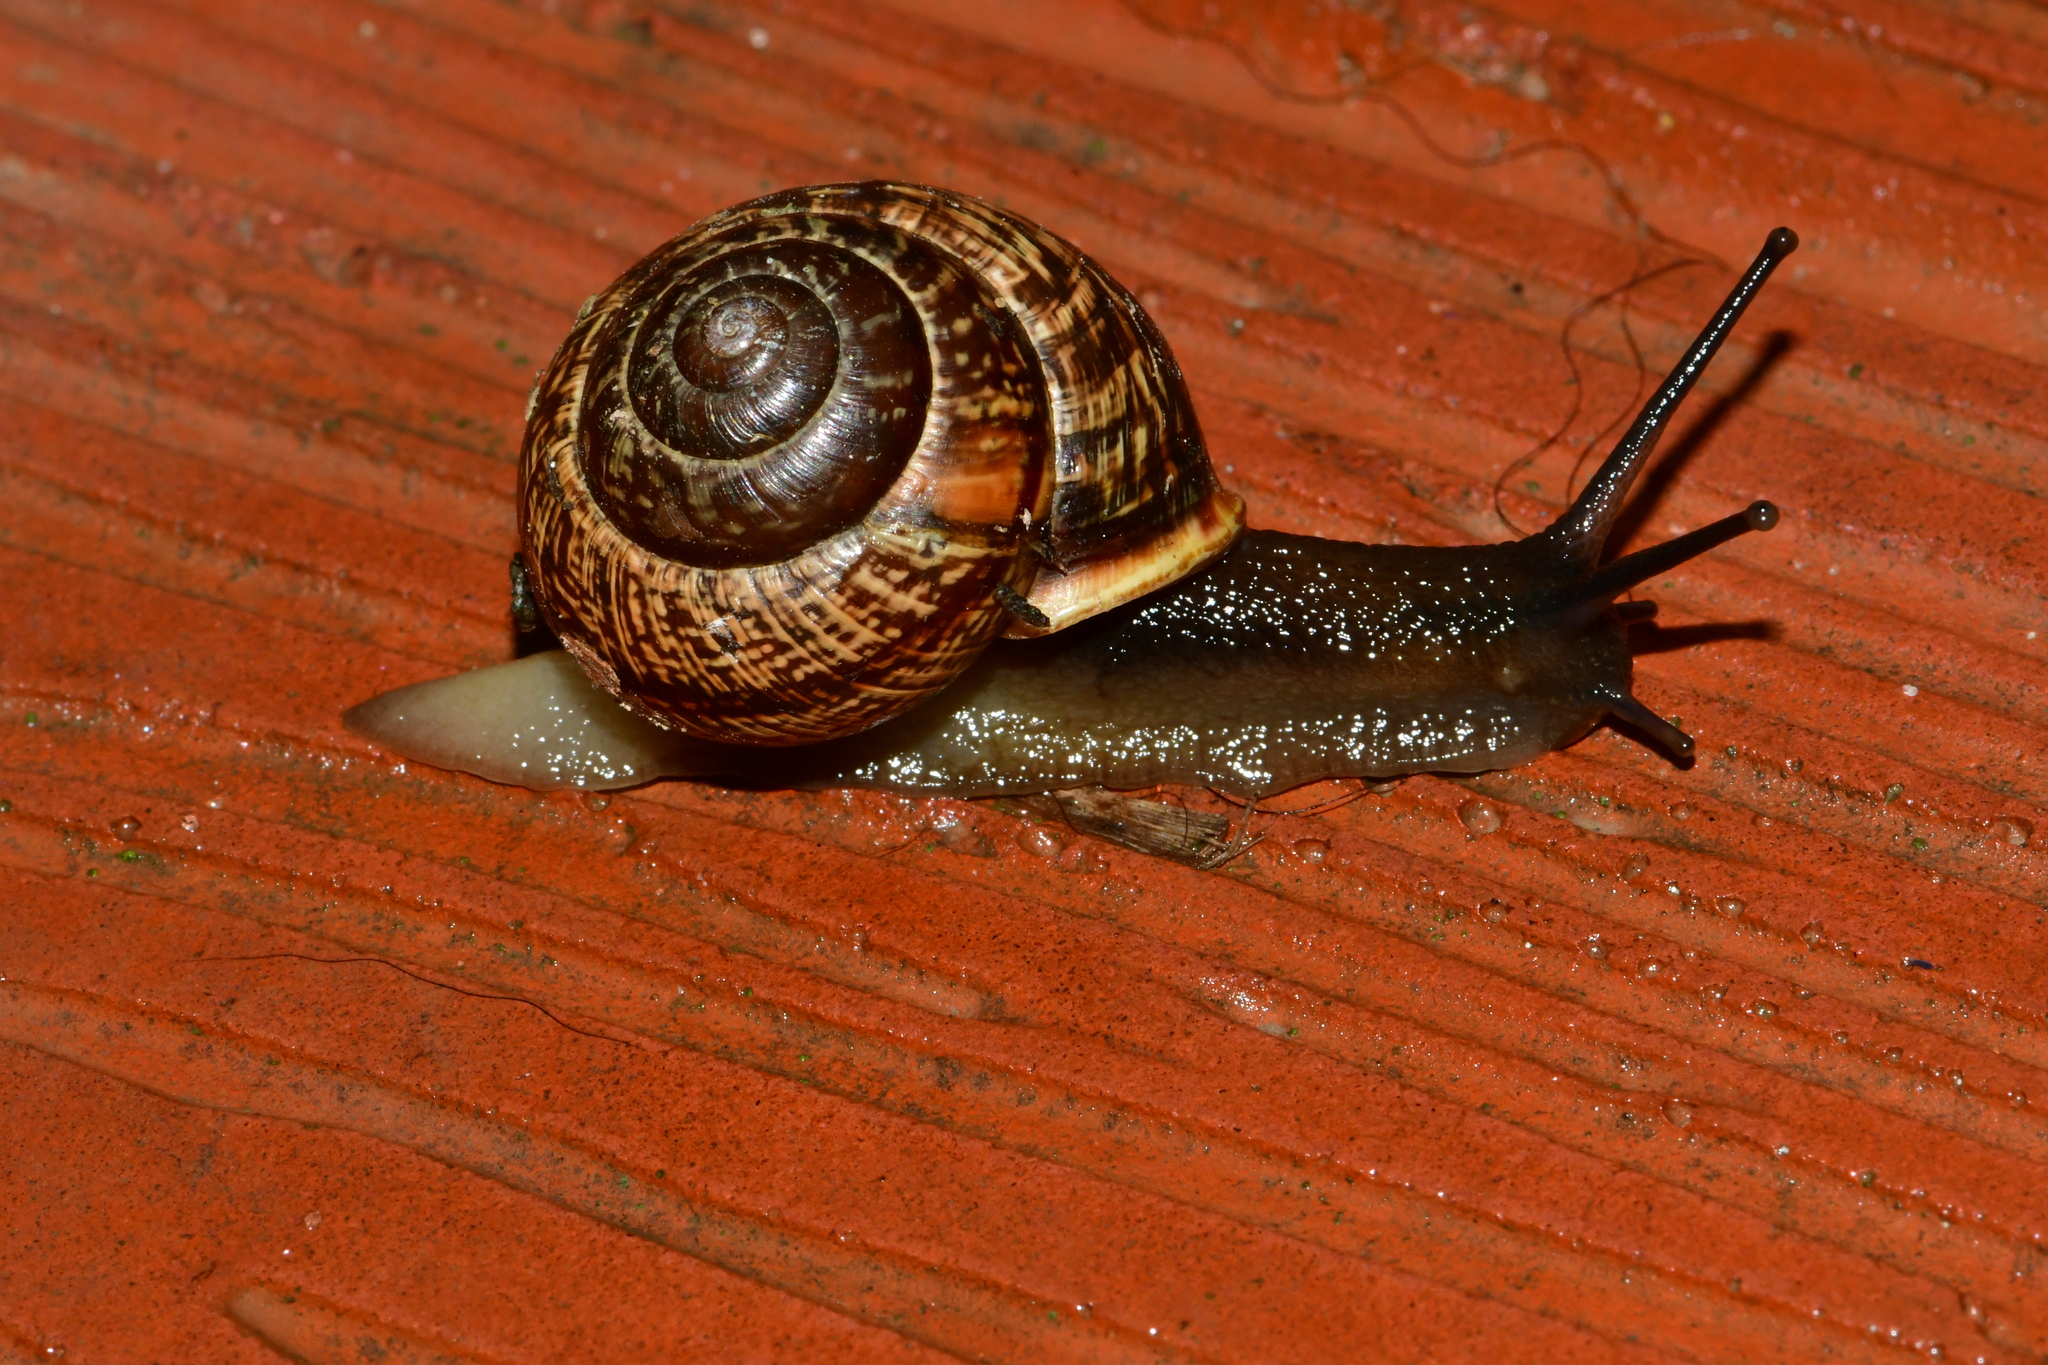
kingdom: Animalia
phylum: Mollusca
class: Gastropoda
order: Stylommatophora
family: Helicidae
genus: Arianta
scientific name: Arianta arbustorum
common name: Copse snail
